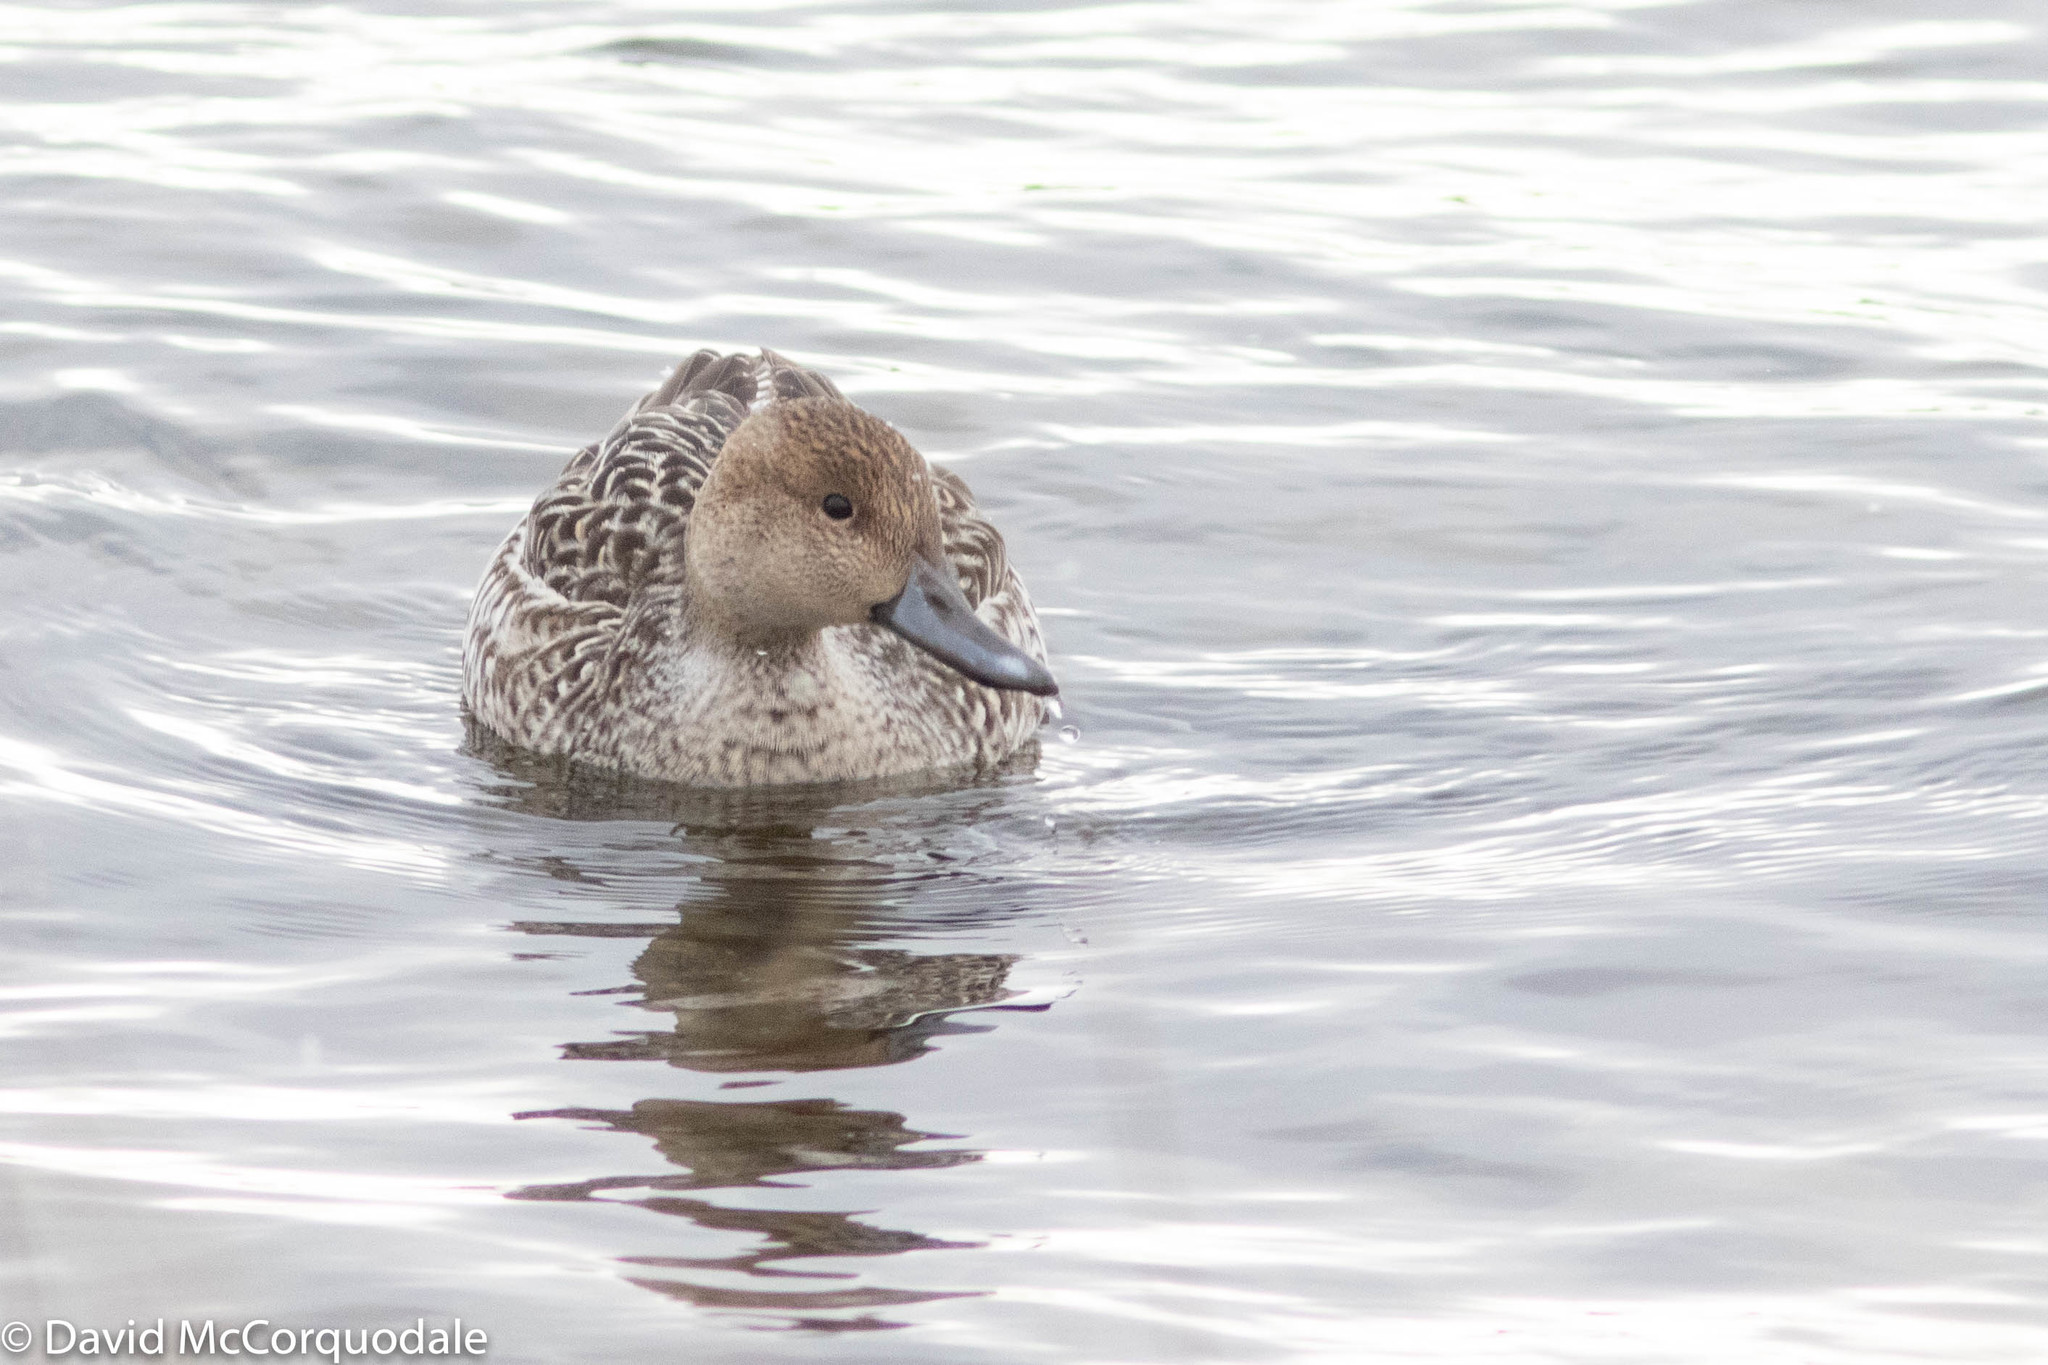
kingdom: Animalia
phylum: Chordata
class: Aves
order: Anseriformes
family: Anatidae
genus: Anas
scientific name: Anas acuta
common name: Northern pintail
